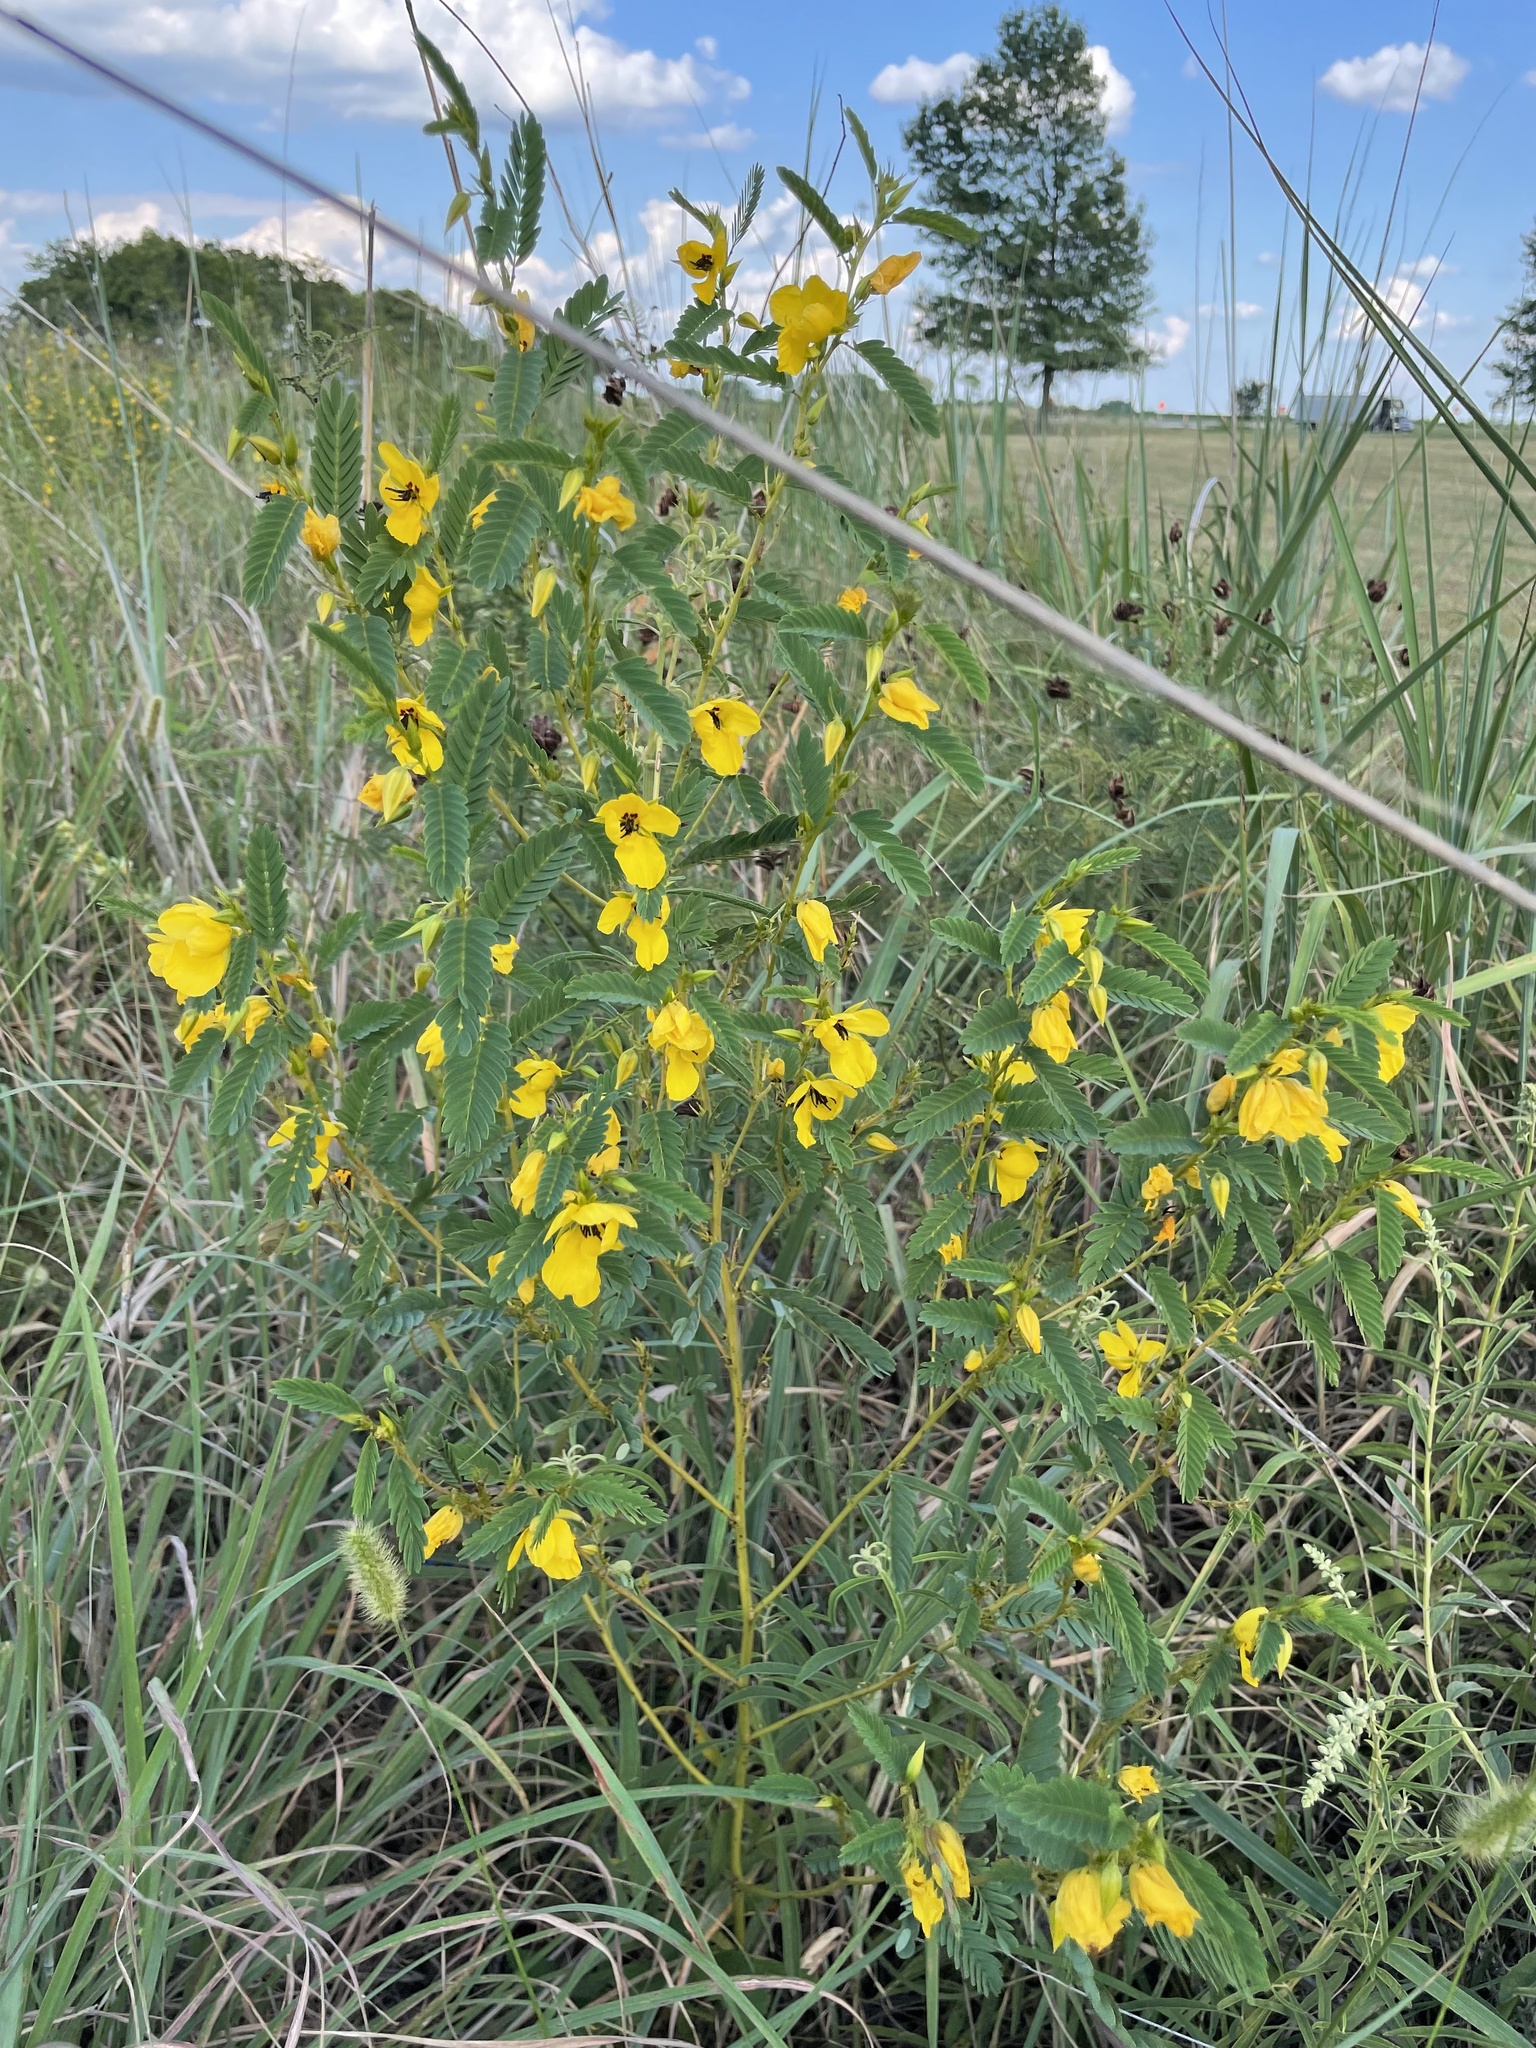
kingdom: Plantae
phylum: Tracheophyta
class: Magnoliopsida
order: Fabales
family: Fabaceae
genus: Chamaecrista
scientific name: Chamaecrista fasciculata
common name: Golden cassia
